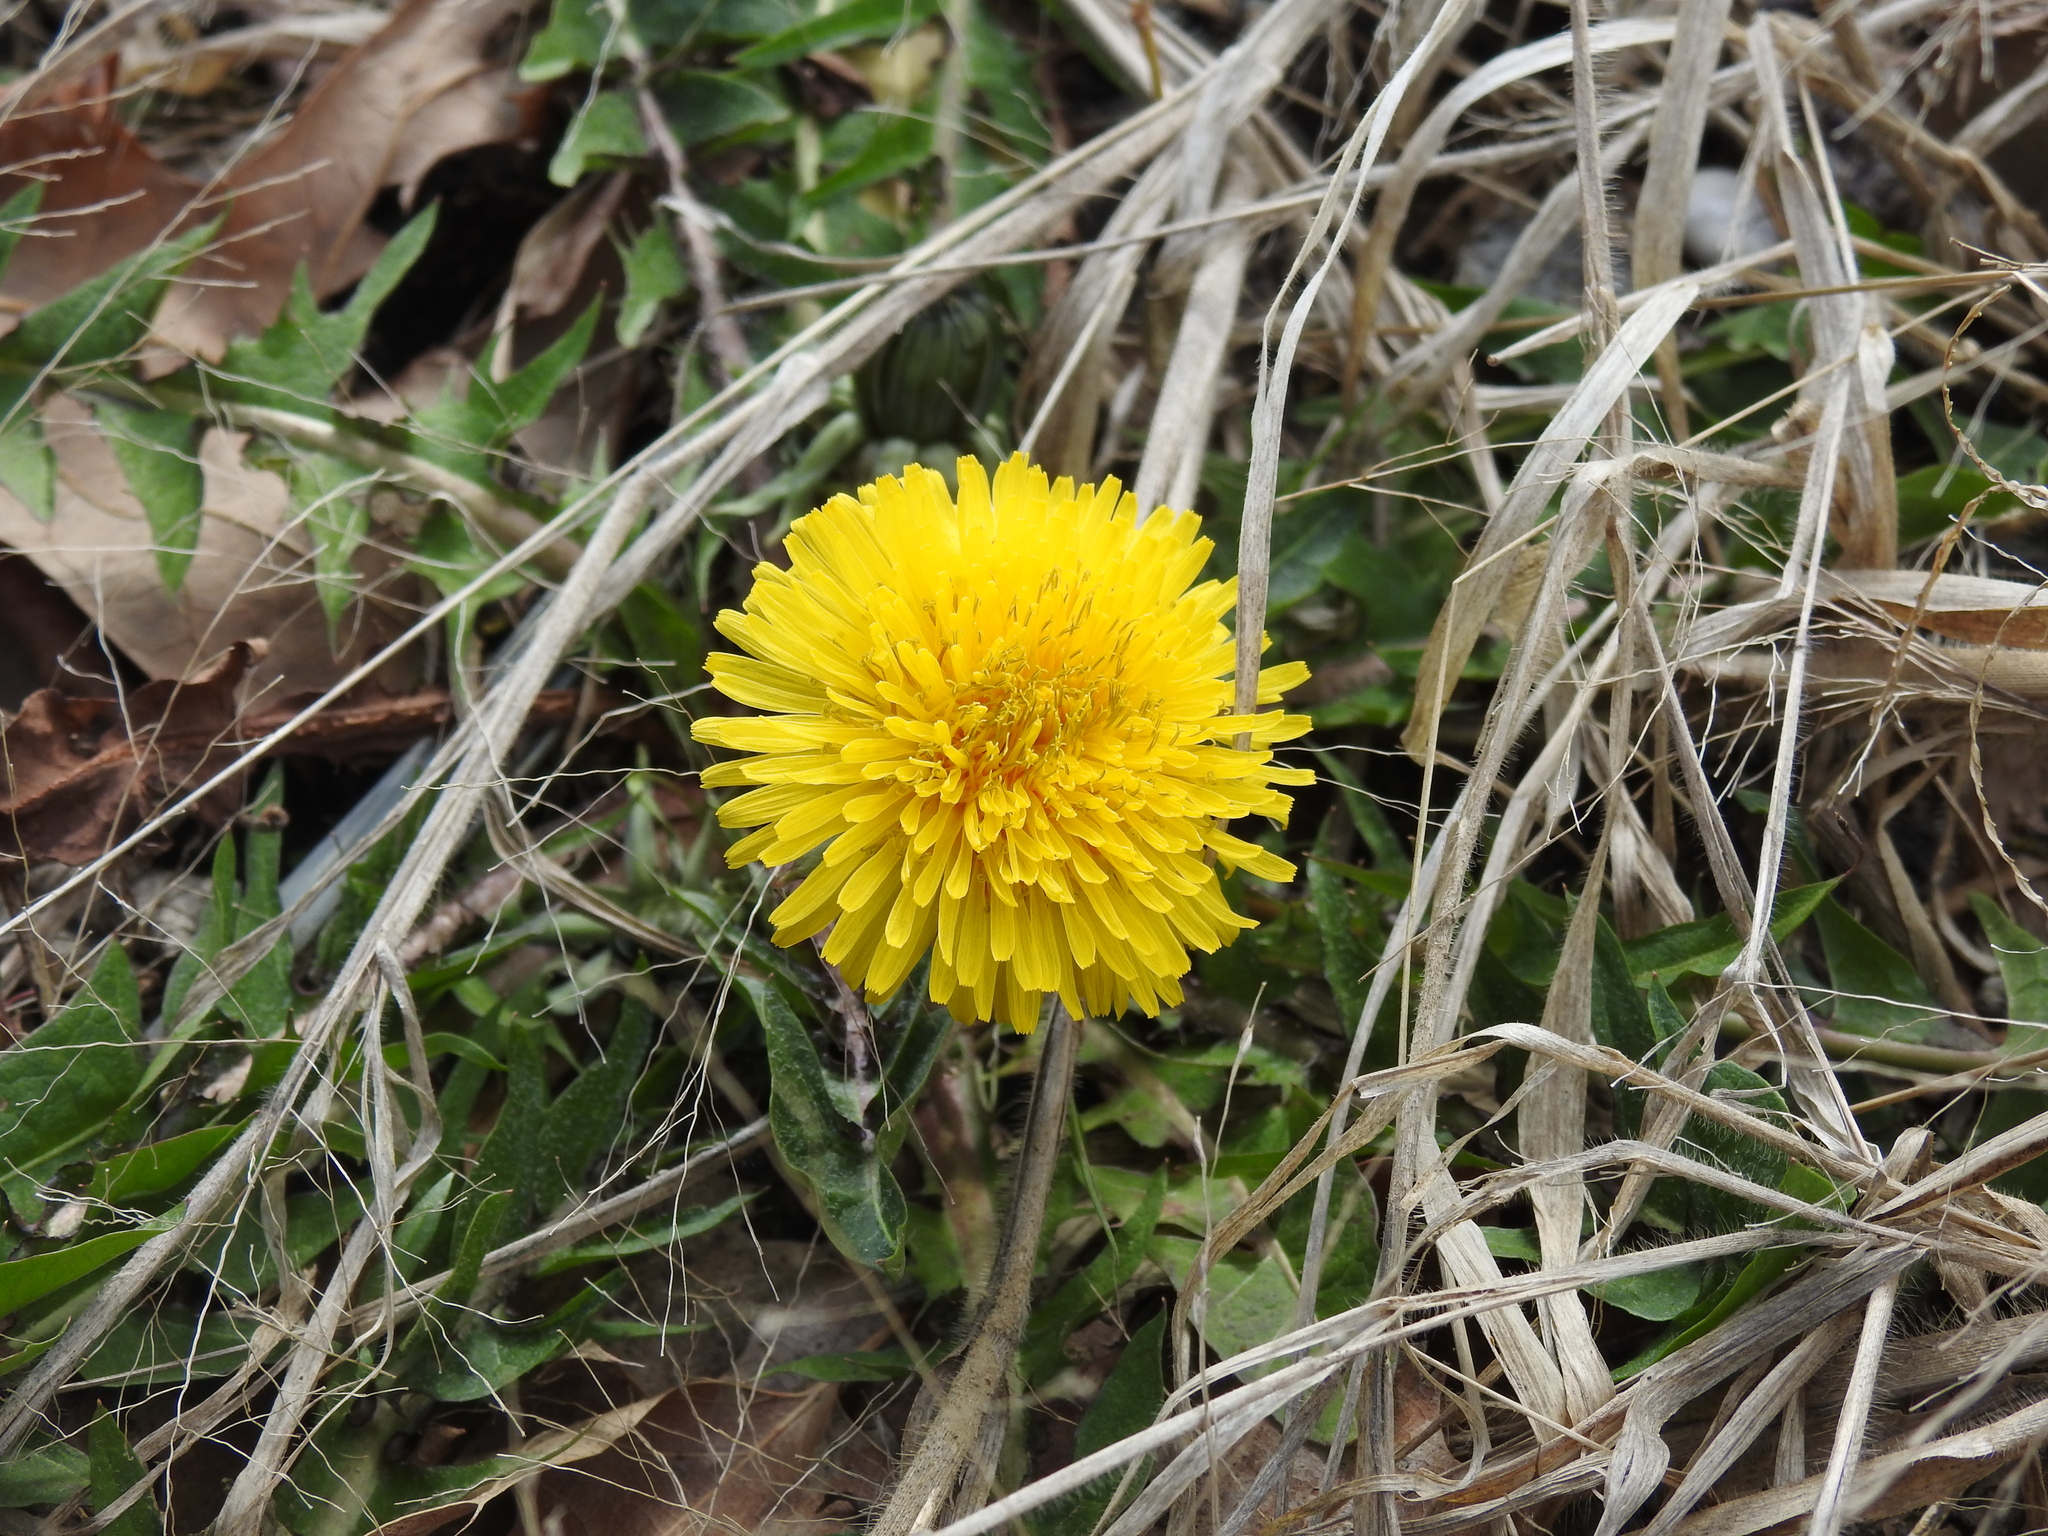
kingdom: Plantae
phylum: Tracheophyta
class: Magnoliopsida
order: Asterales
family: Asteraceae
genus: Taraxacum
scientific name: Taraxacum officinale
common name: Common dandelion
